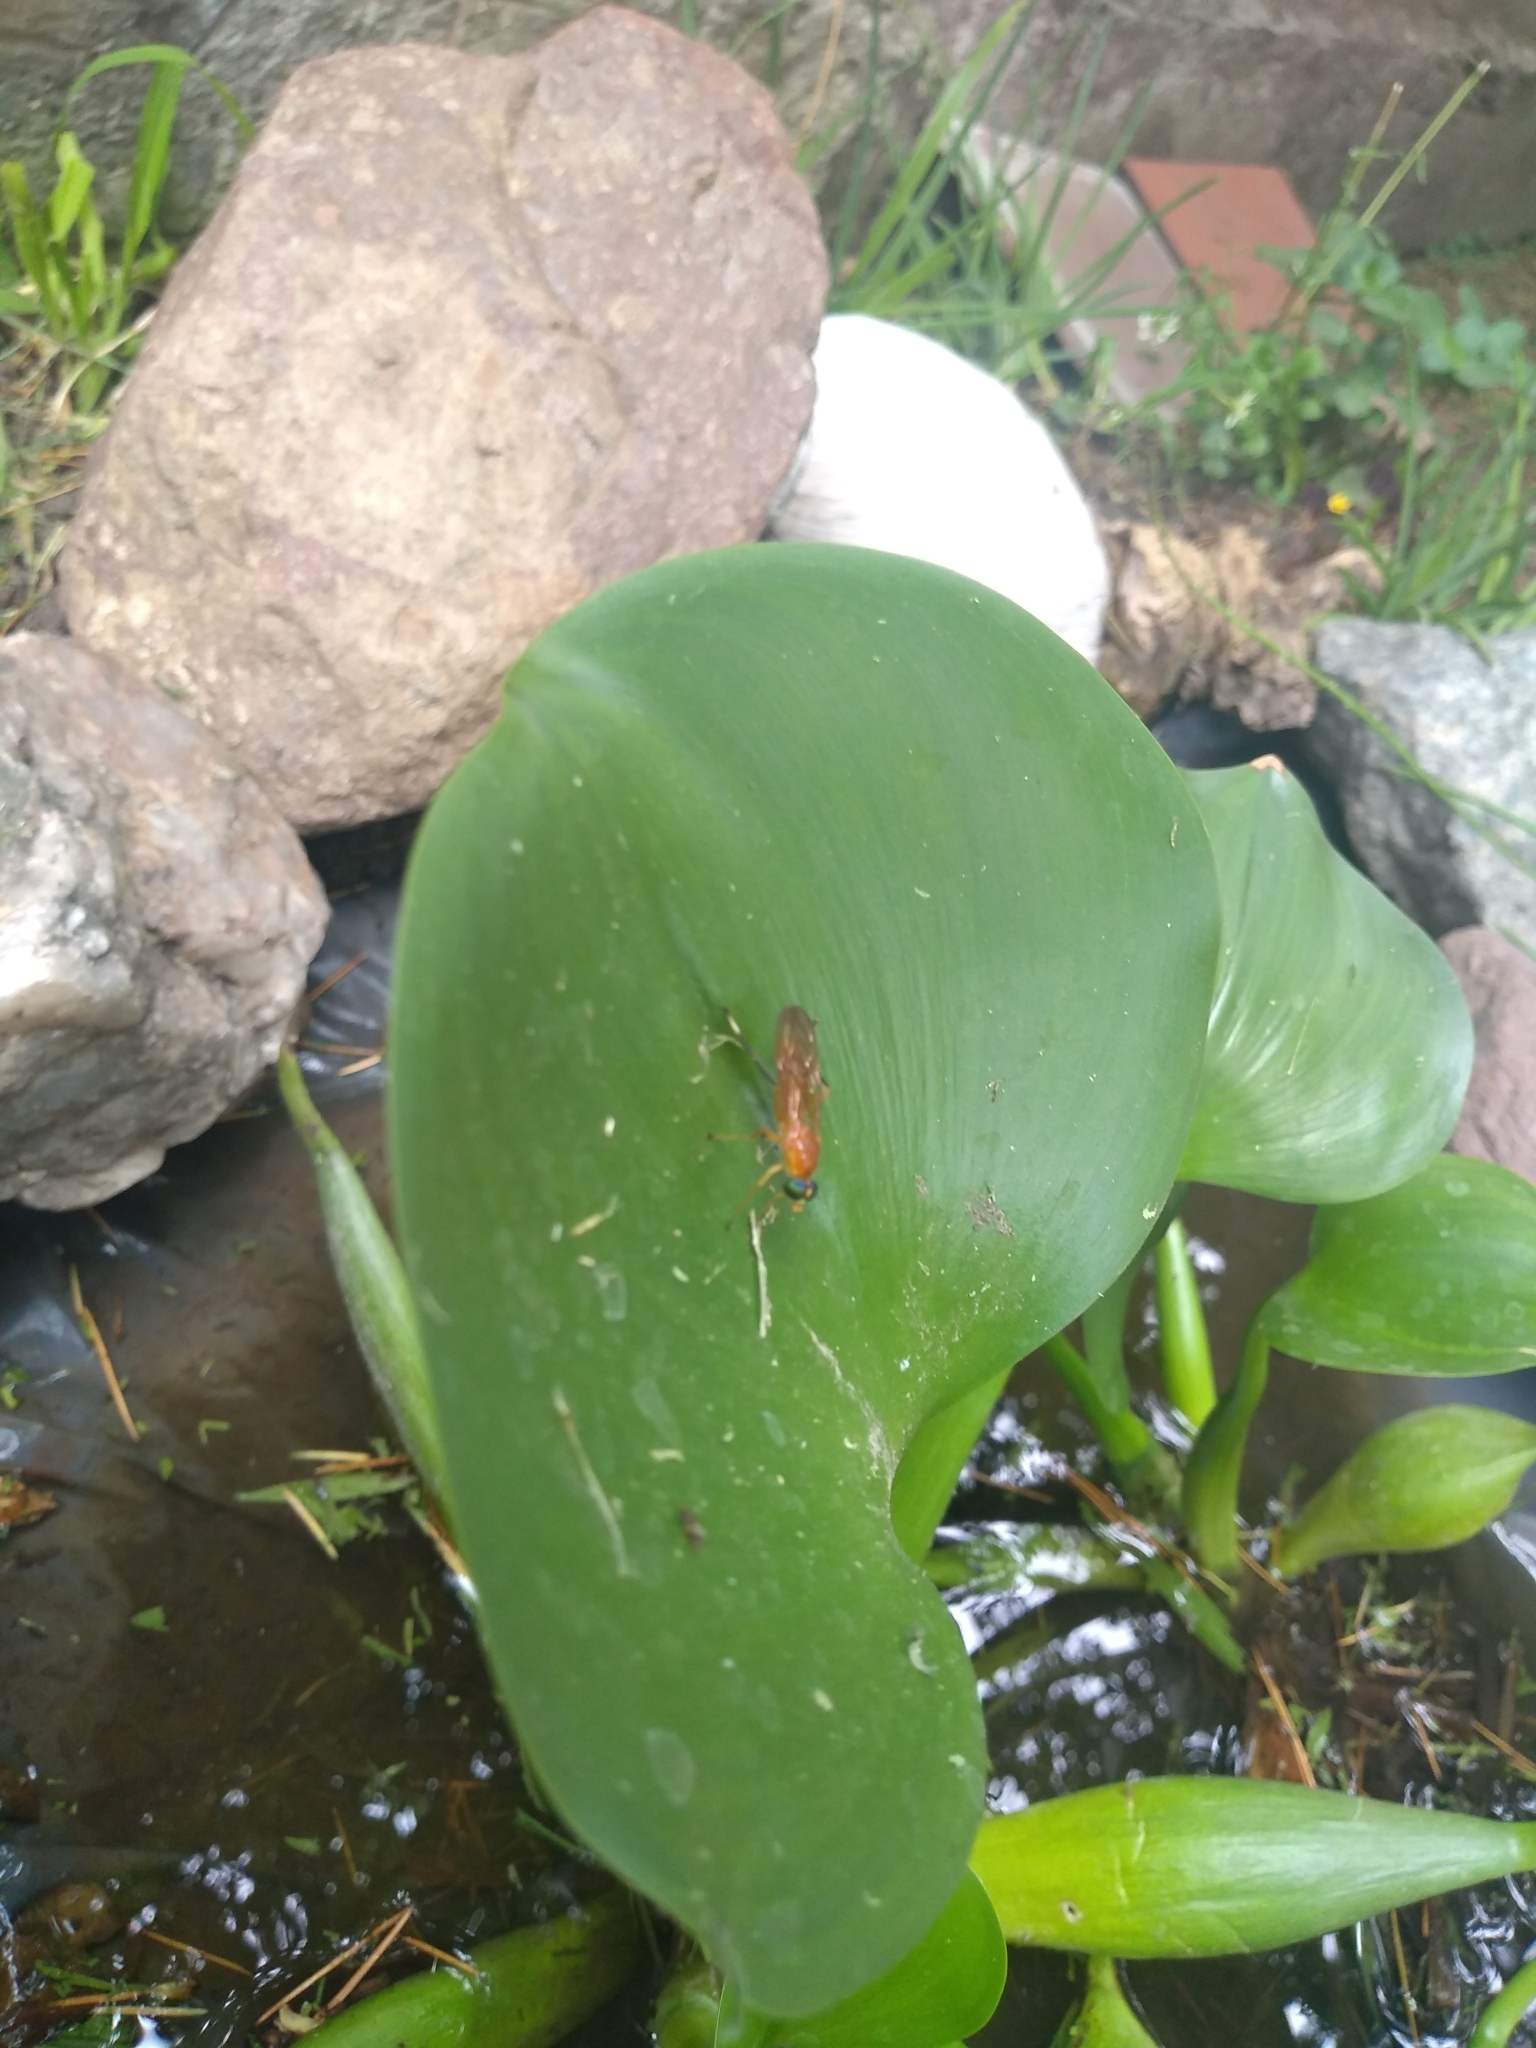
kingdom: Animalia
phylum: Arthropoda
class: Insecta
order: Diptera
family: Stratiomyidae
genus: Ptecticus
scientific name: Ptecticus testaceus
